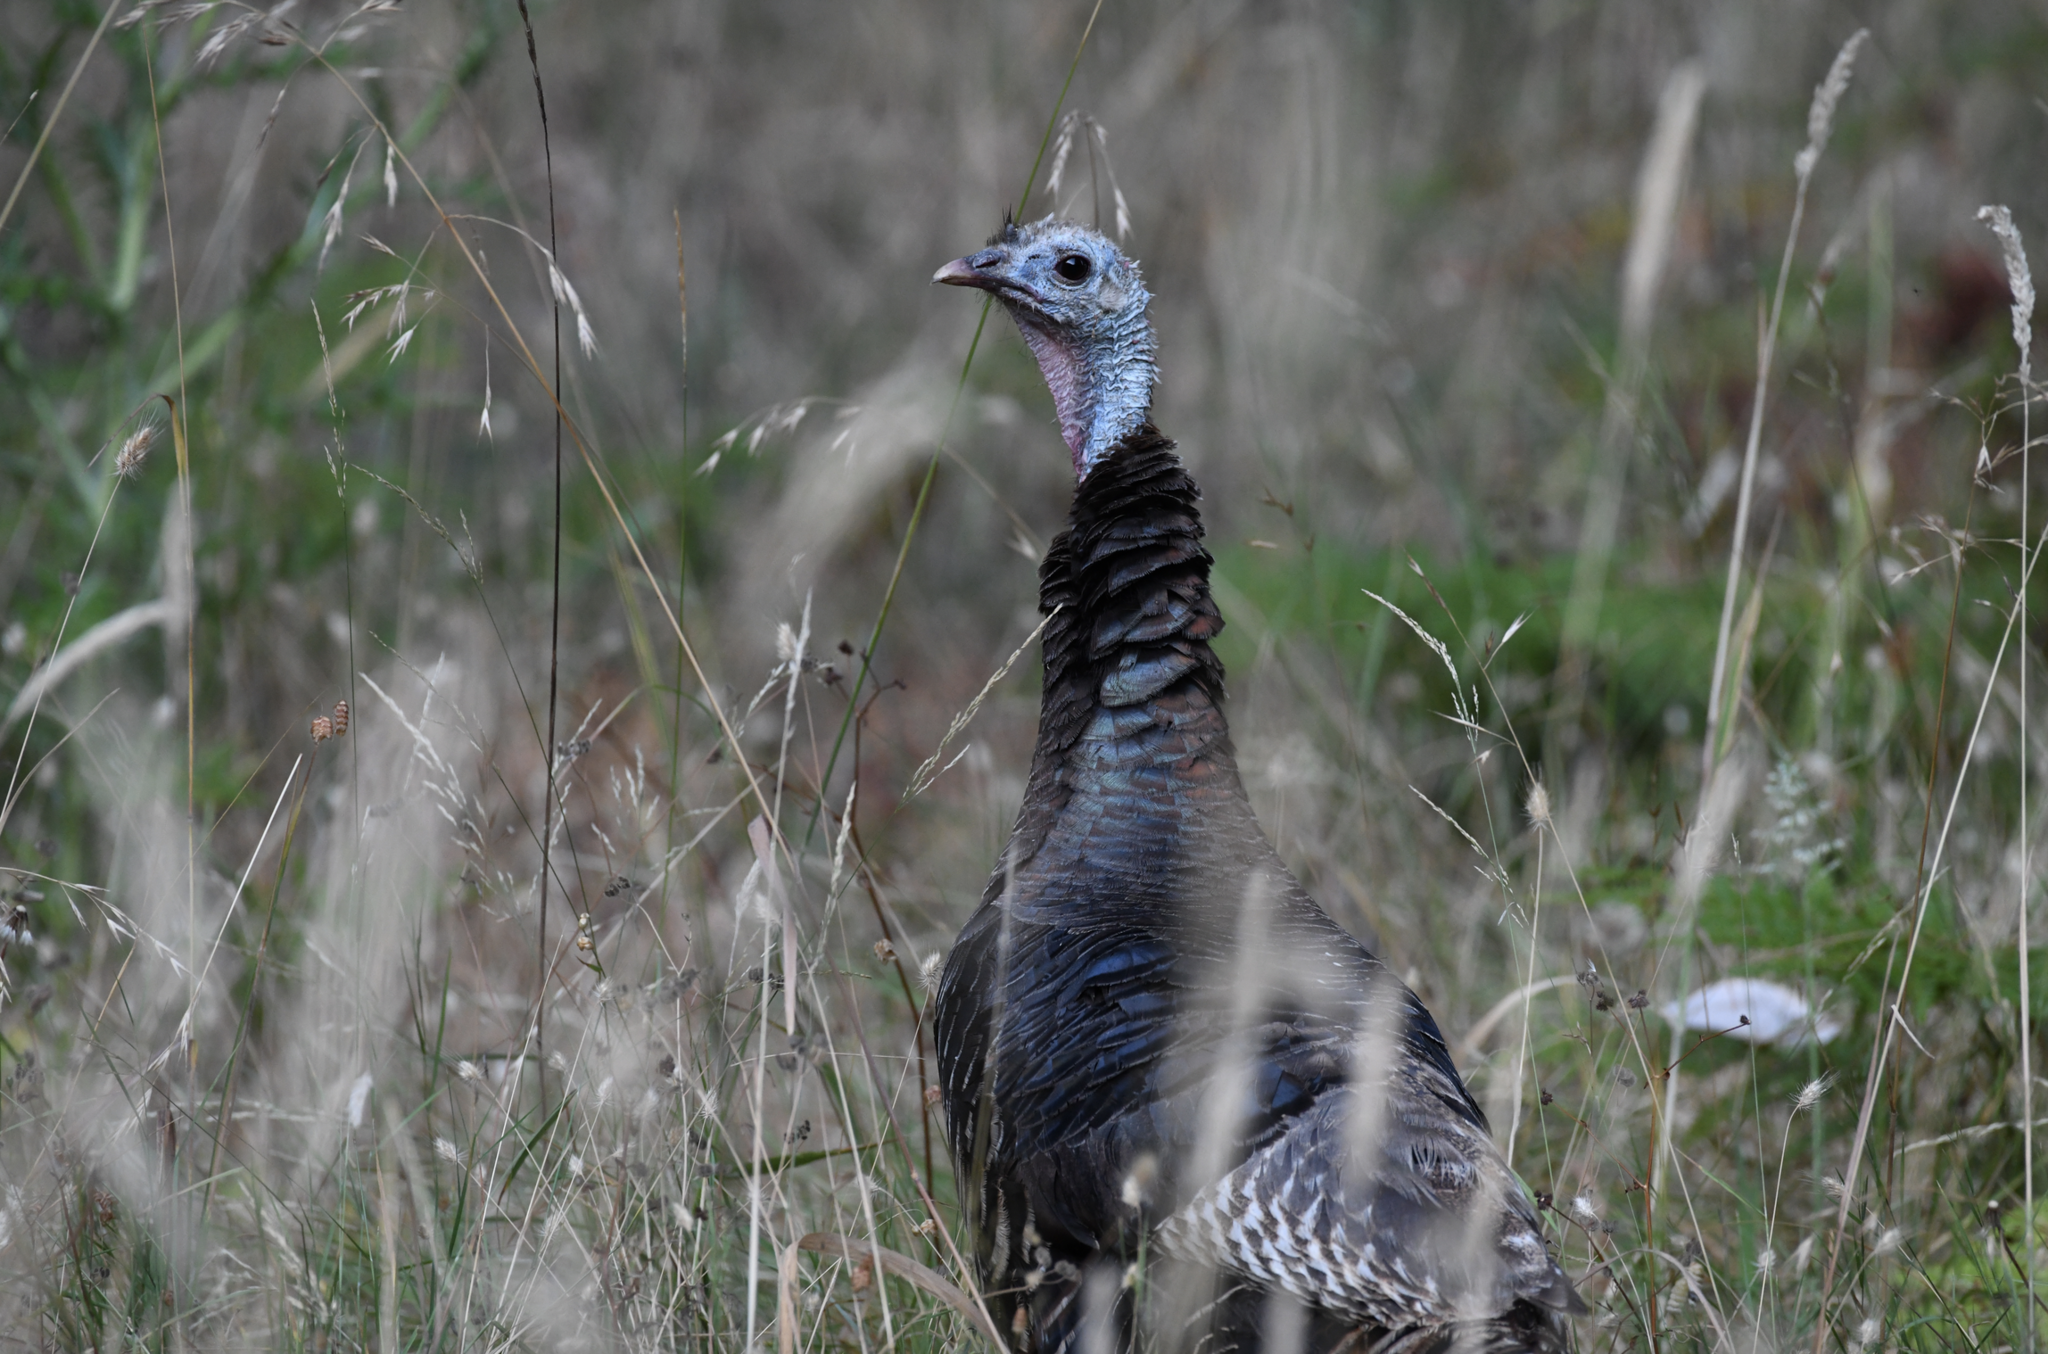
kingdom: Animalia
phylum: Chordata
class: Aves
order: Galliformes
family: Phasianidae
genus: Meleagris
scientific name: Meleagris gallopavo
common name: Wild turkey
